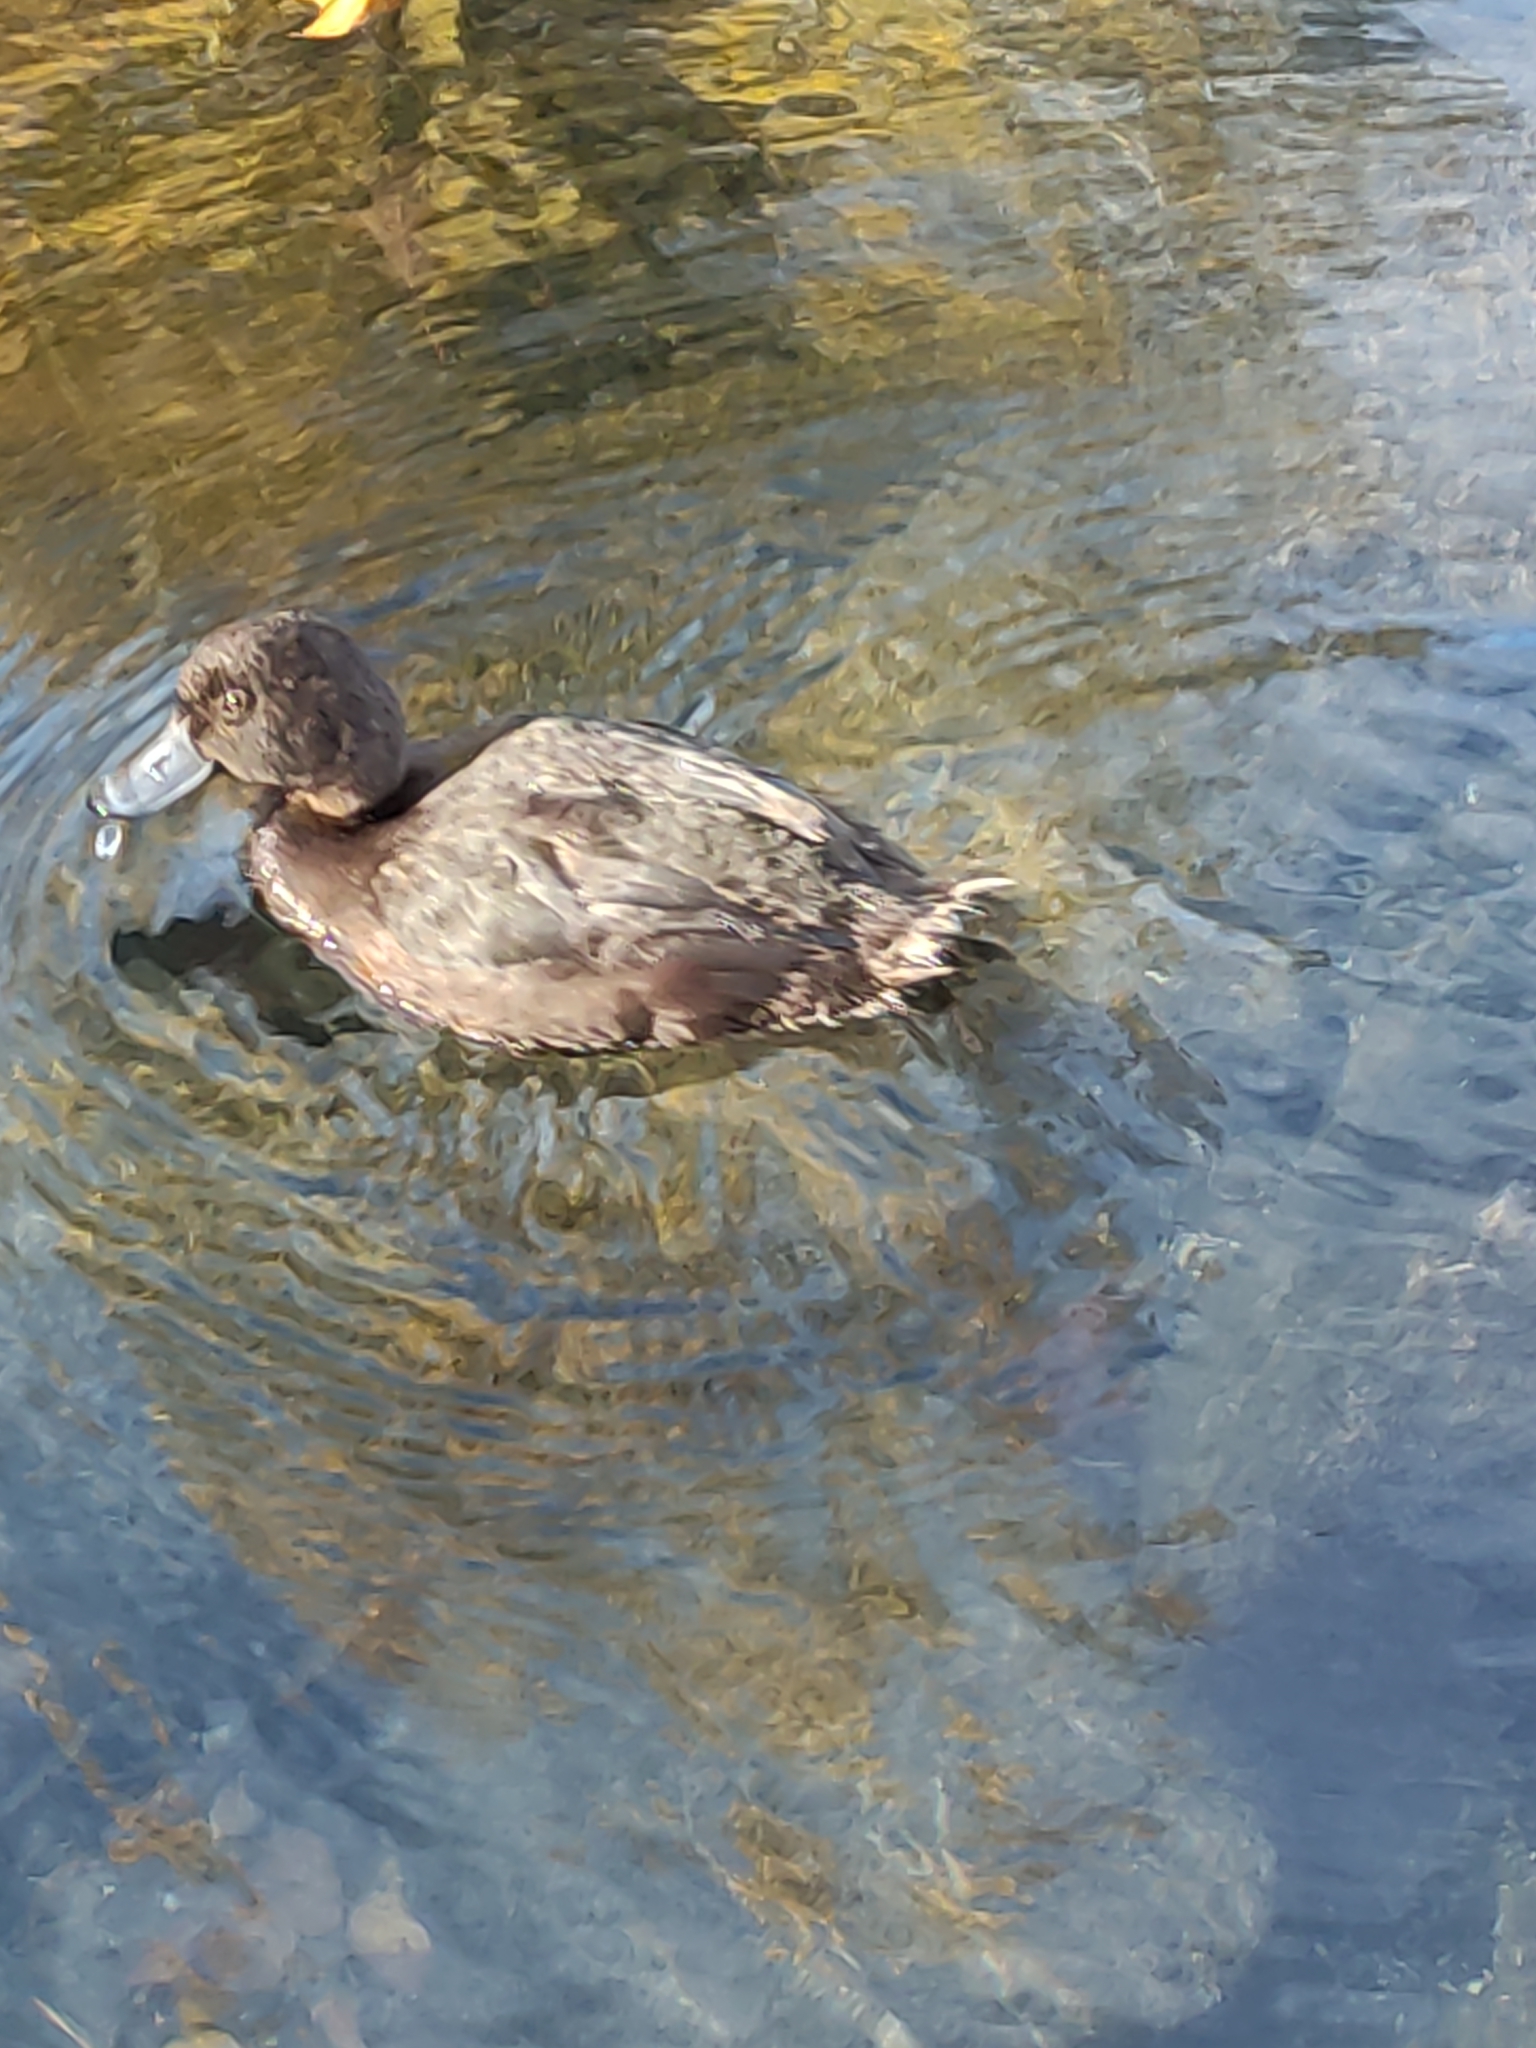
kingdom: Animalia
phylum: Chordata
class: Aves
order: Anseriformes
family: Anatidae
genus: Aythya
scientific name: Aythya novaeseelandiae
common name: New zealand scaup
